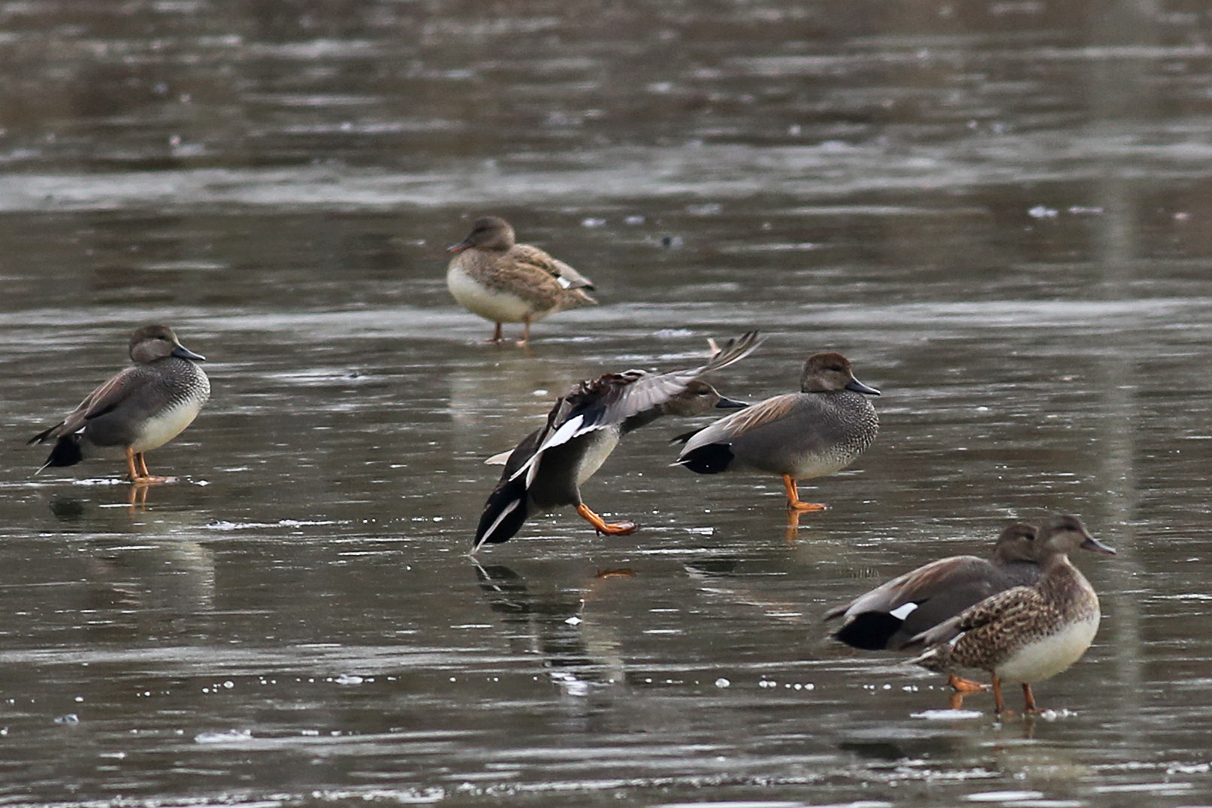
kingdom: Animalia
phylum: Chordata
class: Aves
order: Anseriformes
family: Anatidae
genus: Mareca
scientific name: Mareca strepera
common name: Gadwall
